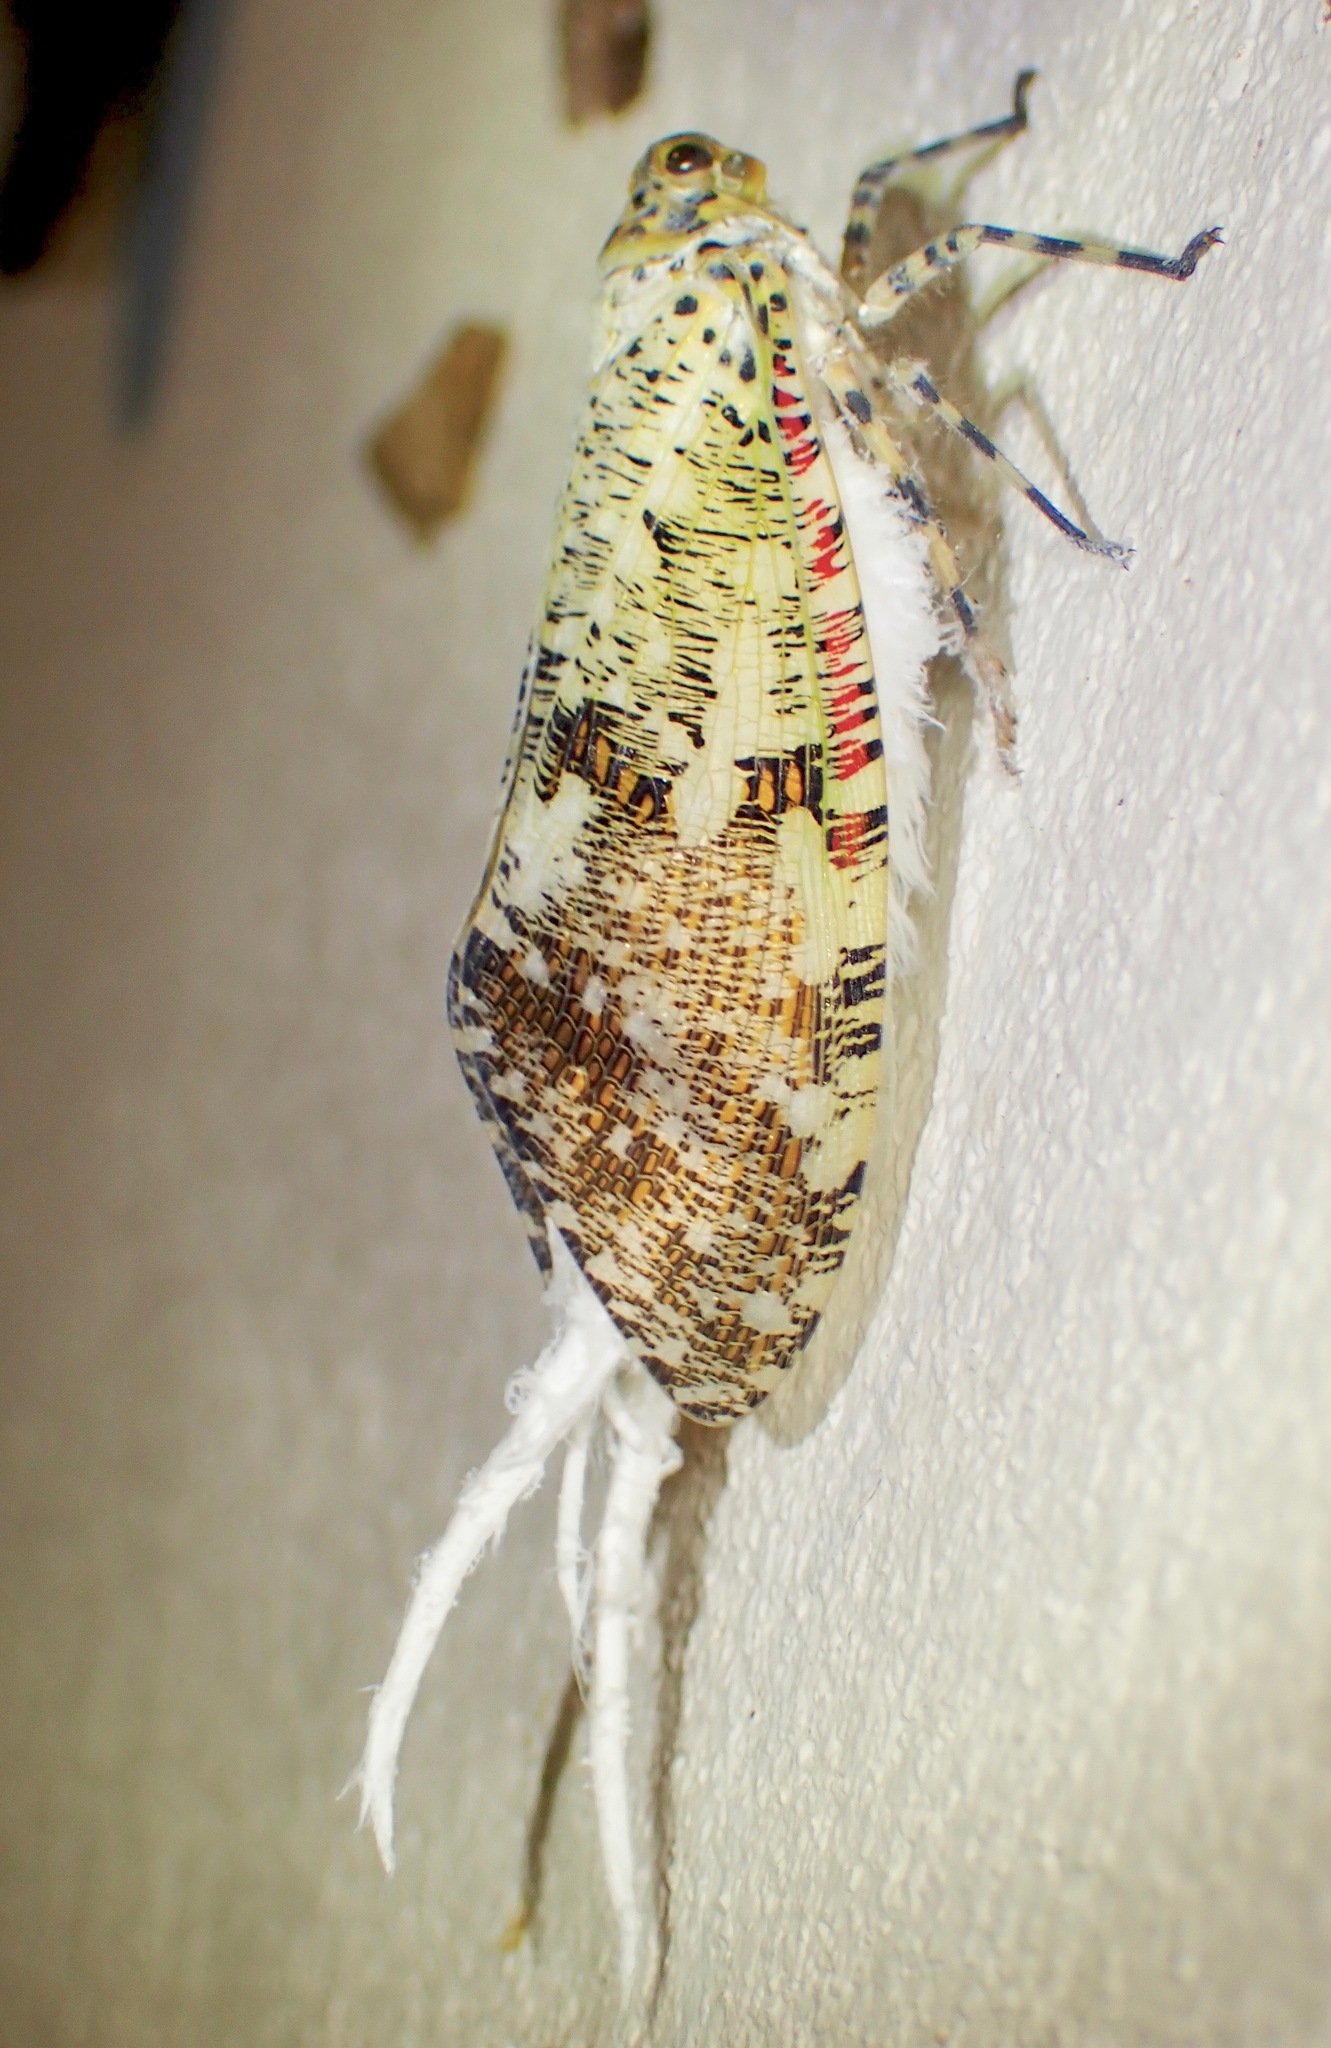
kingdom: Animalia
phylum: Arthropoda
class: Insecta
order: Hemiptera
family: Fulgoridae
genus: Phenax
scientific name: Phenax variegata
